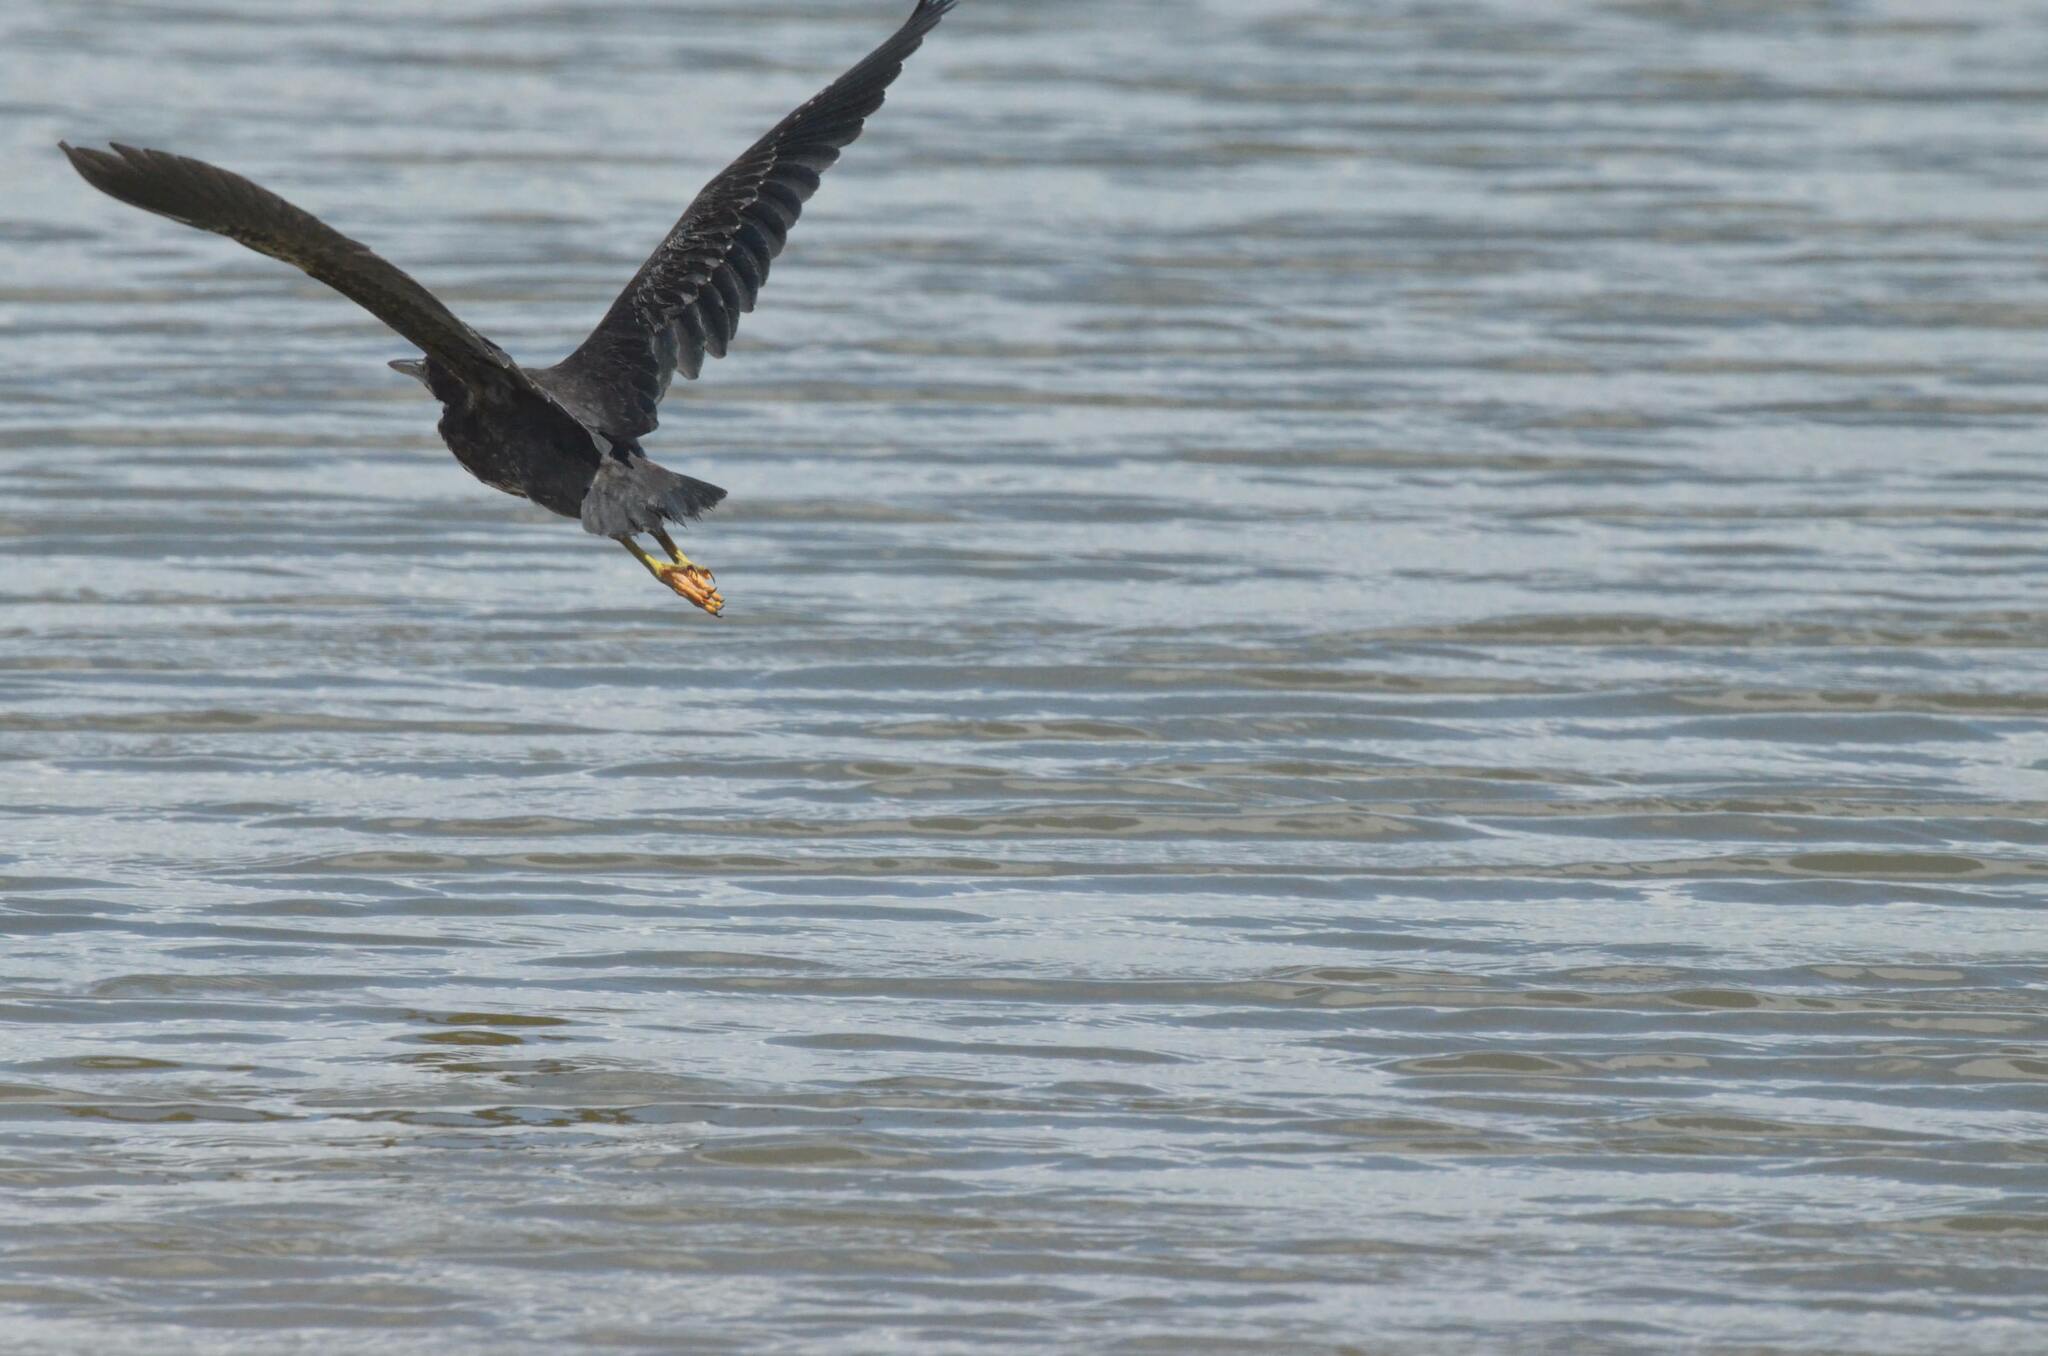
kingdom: Animalia
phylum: Chordata
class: Aves
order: Pelecaniformes
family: Ardeidae
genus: Butorides
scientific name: Butorides virescens
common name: Green heron
